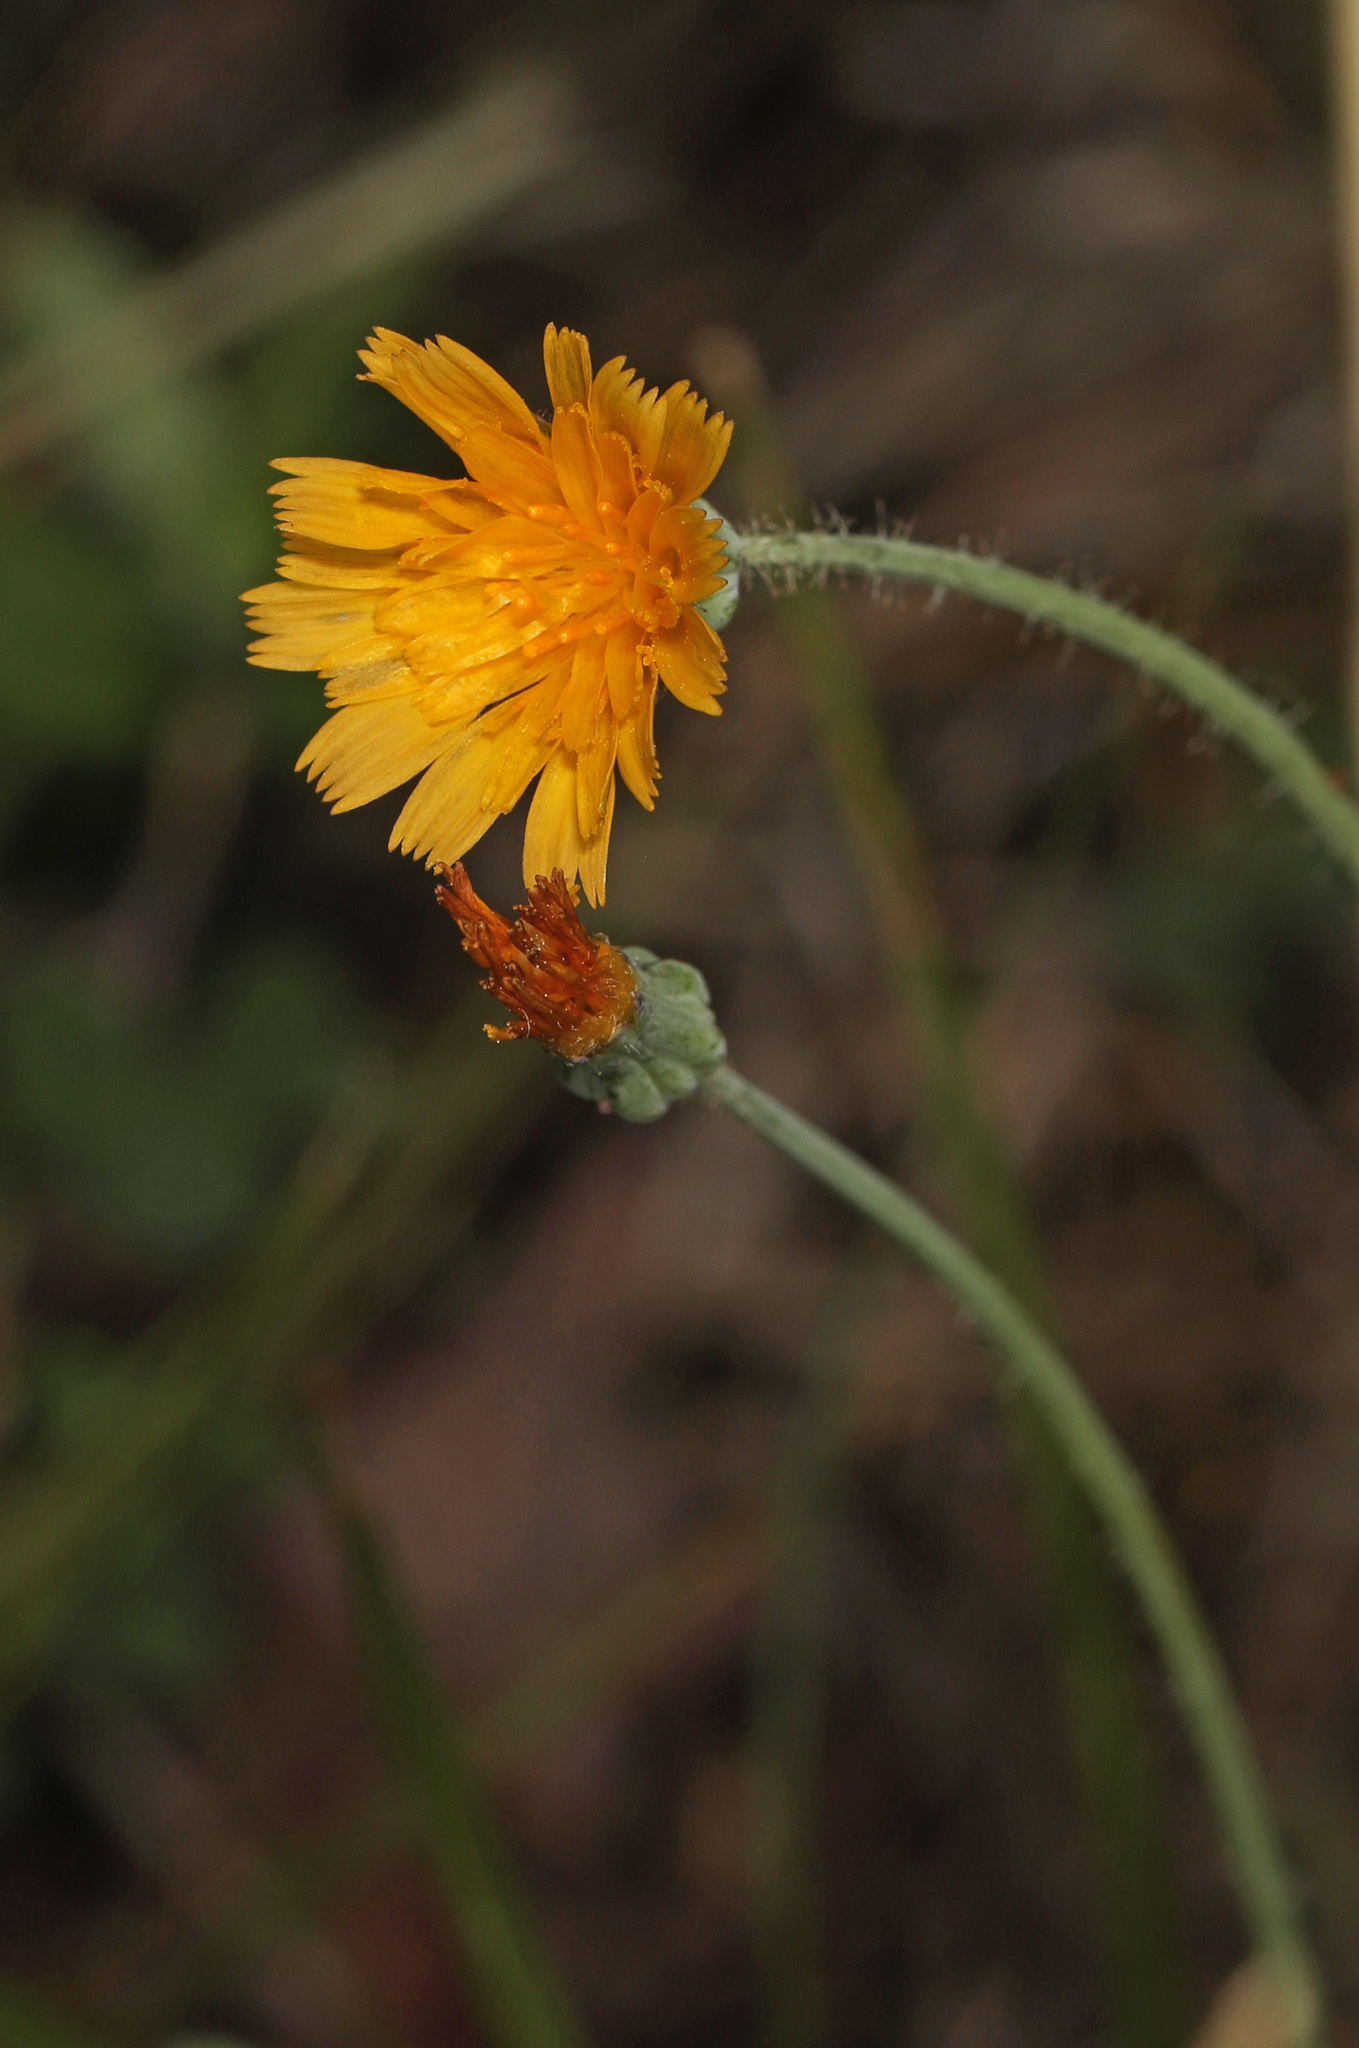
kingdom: Plantae
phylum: Tracheophyta
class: Magnoliopsida
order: Asterales
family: Asteraceae
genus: Krigia
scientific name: Krigia virginica
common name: Virginia dwarf-dandelion
